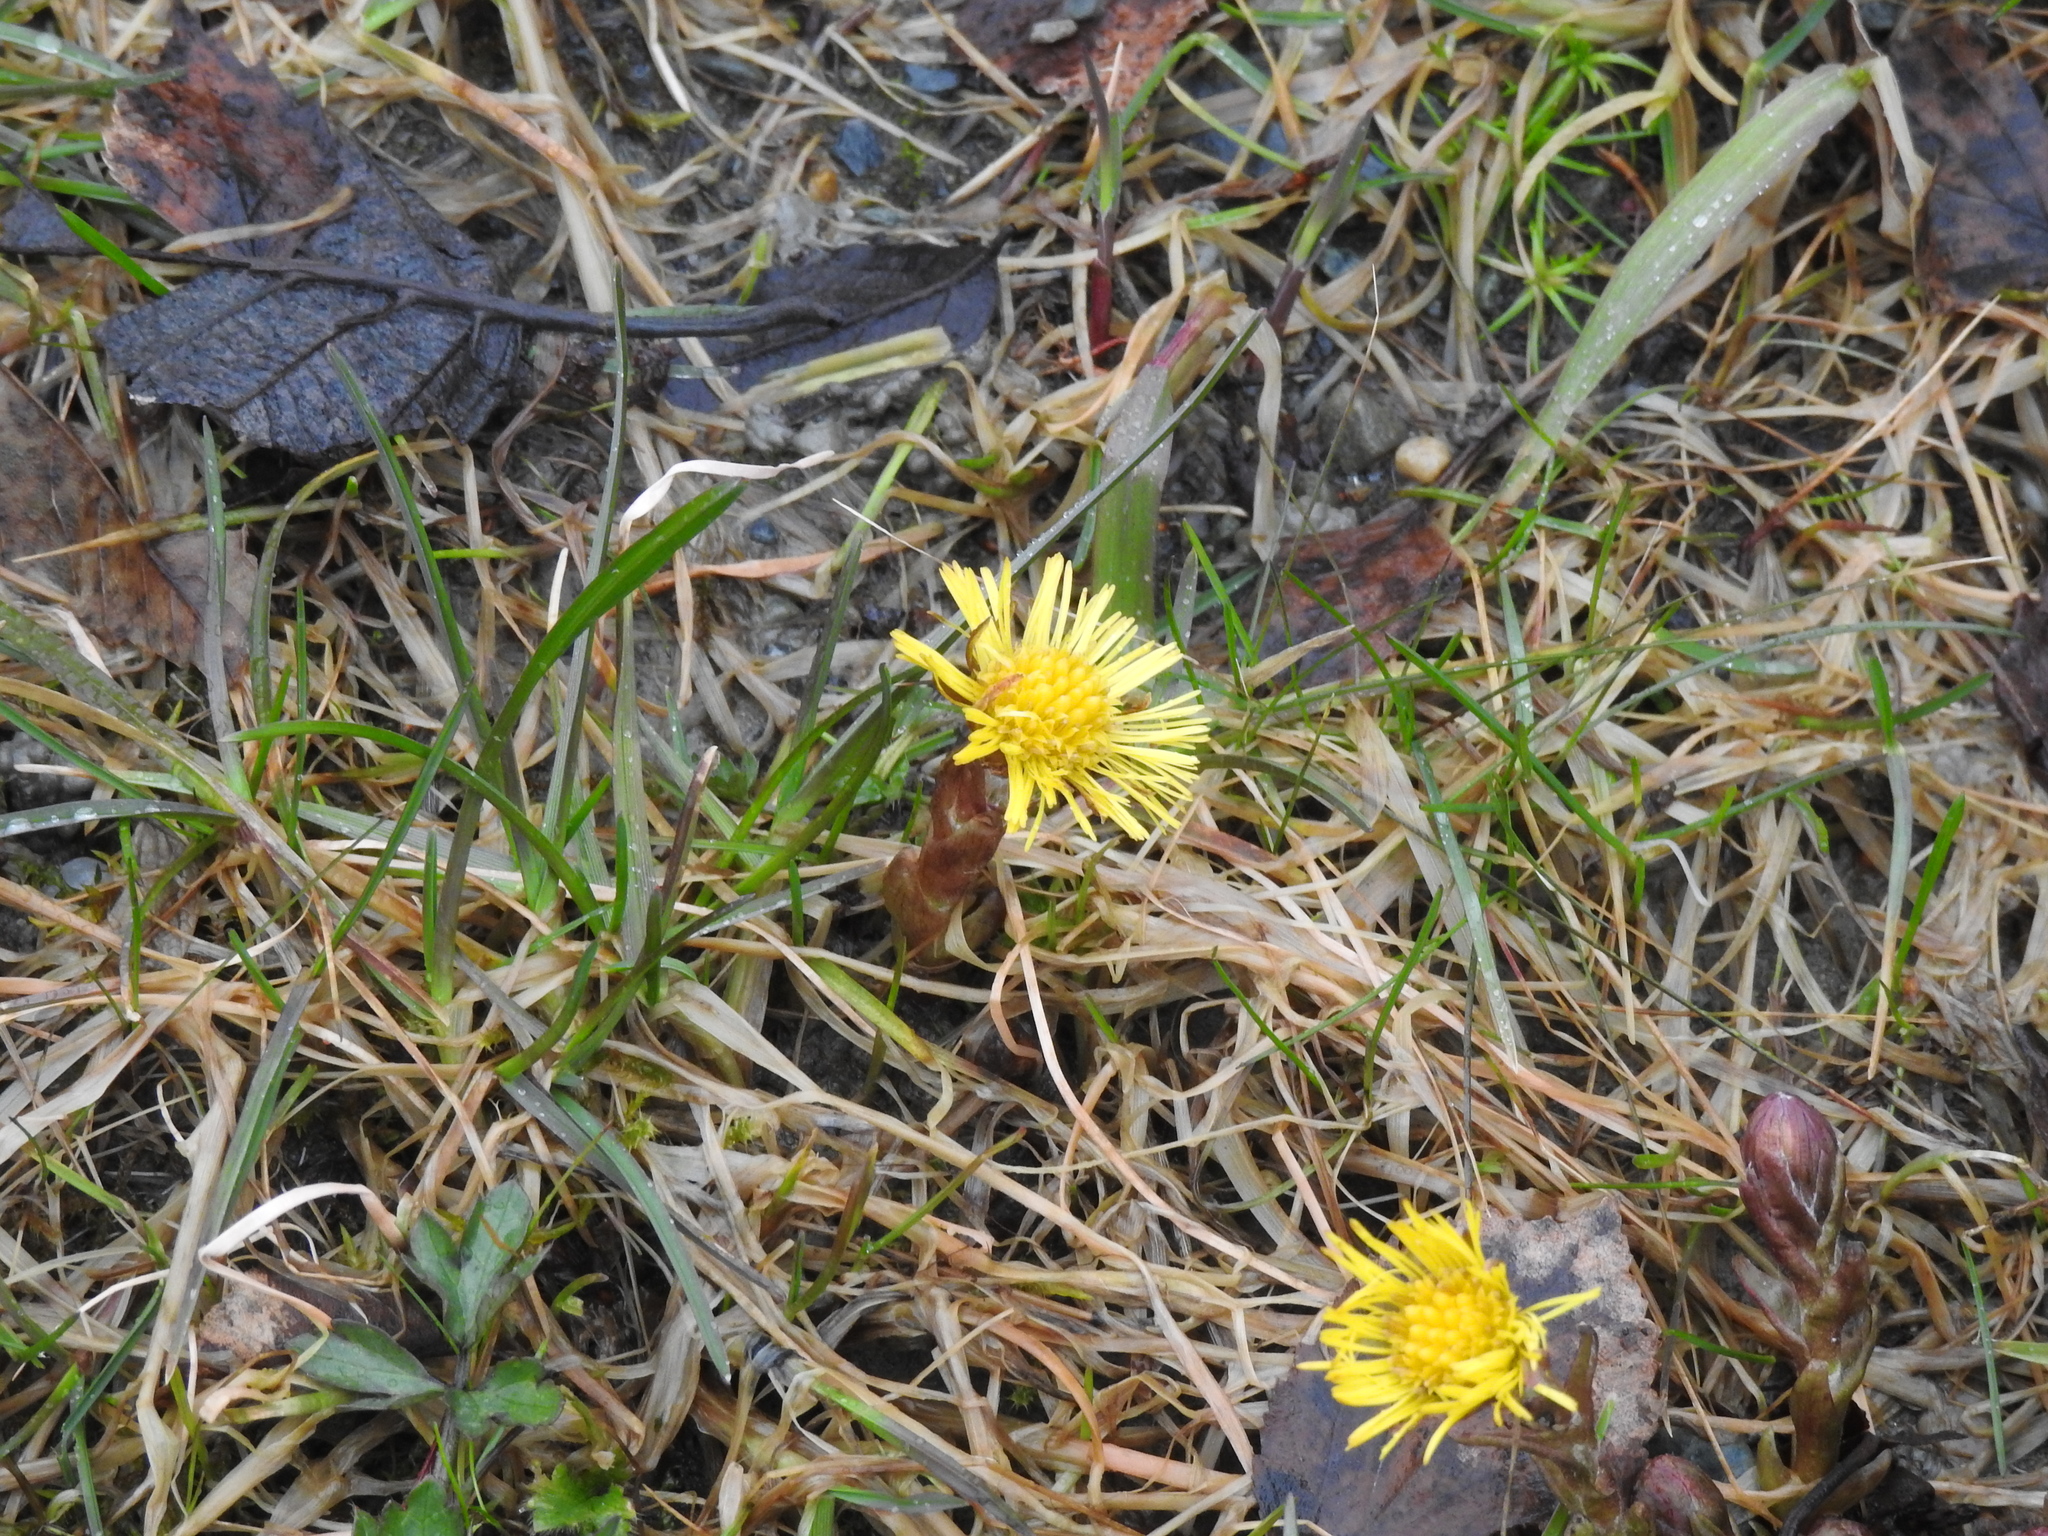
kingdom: Plantae
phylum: Tracheophyta
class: Magnoliopsida
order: Asterales
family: Asteraceae
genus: Tussilago
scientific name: Tussilago farfara
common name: Coltsfoot
